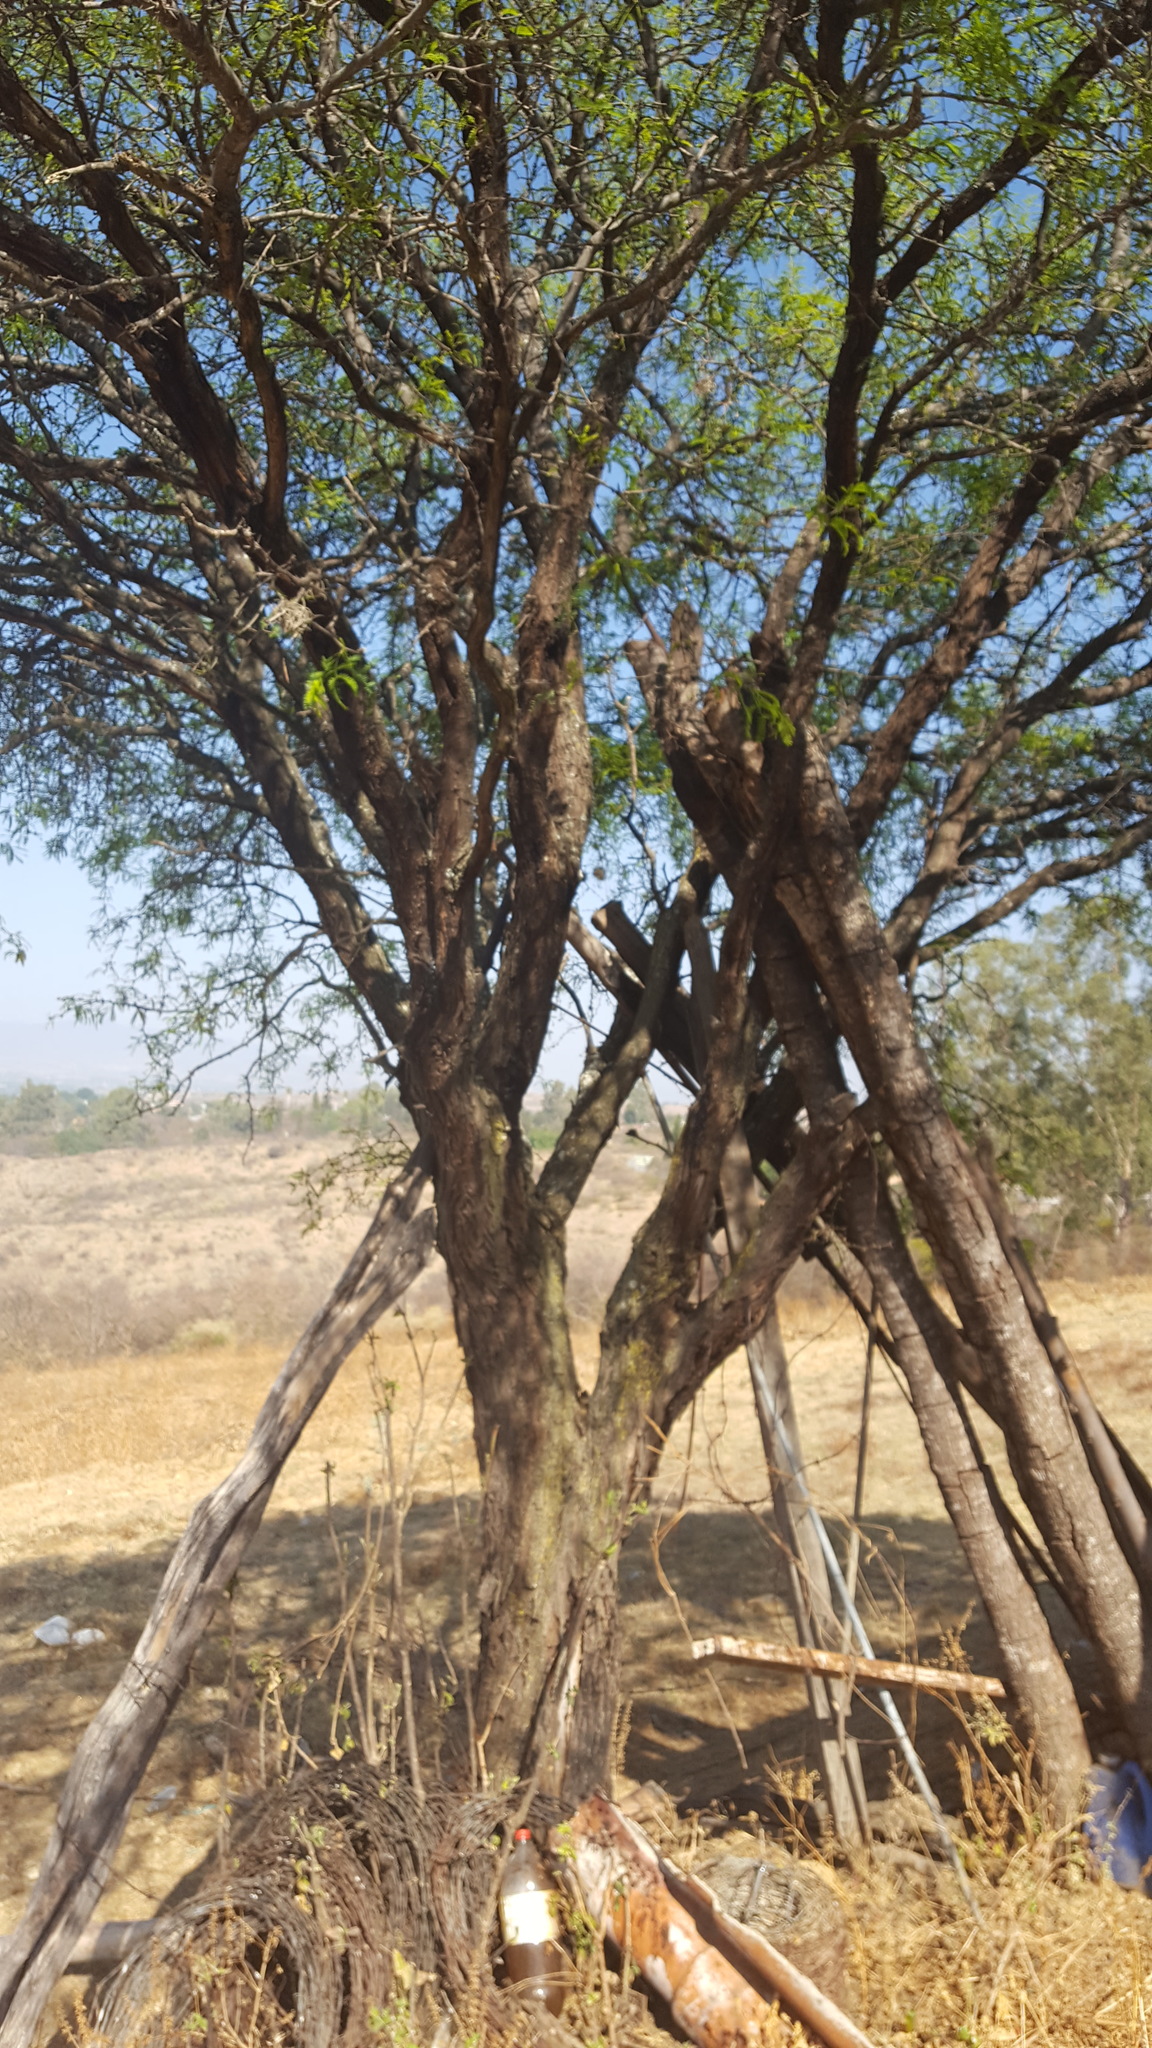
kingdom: Plantae
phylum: Tracheophyta
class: Magnoliopsida
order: Fabales
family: Fabaceae
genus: Prosopis
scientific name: Prosopis laevigata
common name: Smooth mesquite
